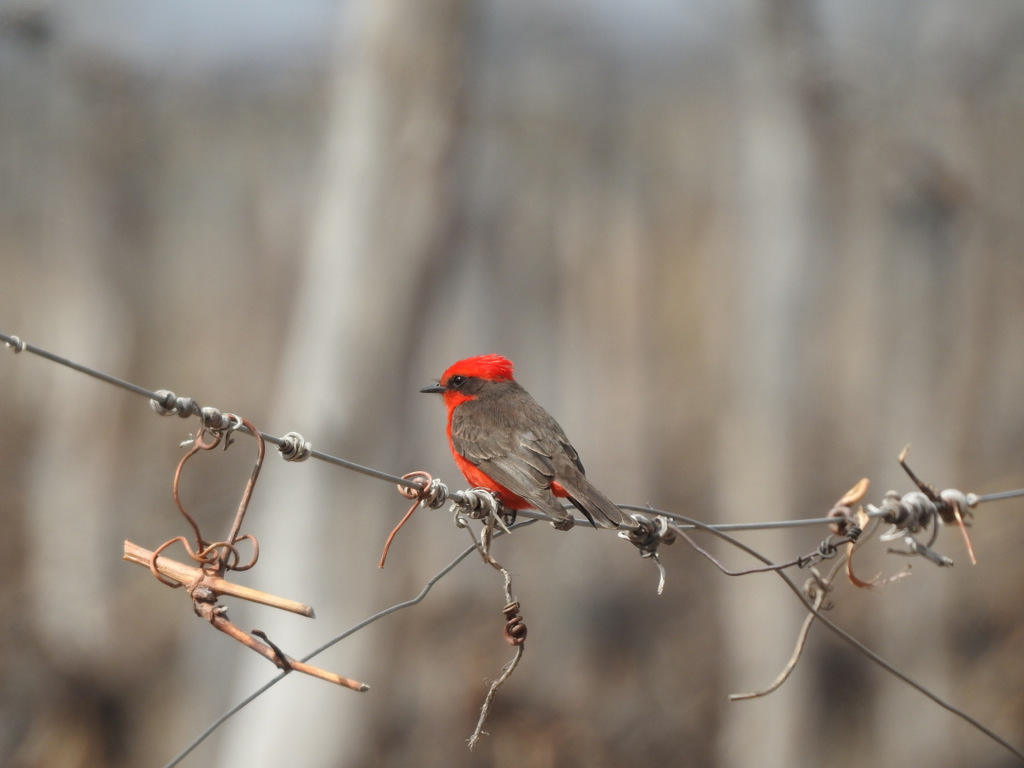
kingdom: Animalia
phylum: Chordata
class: Aves
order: Passeriformes
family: Tyrannidae
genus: Pyrocephalus
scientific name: Pyrocephalus rubinus
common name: Vermilion flycatcher
